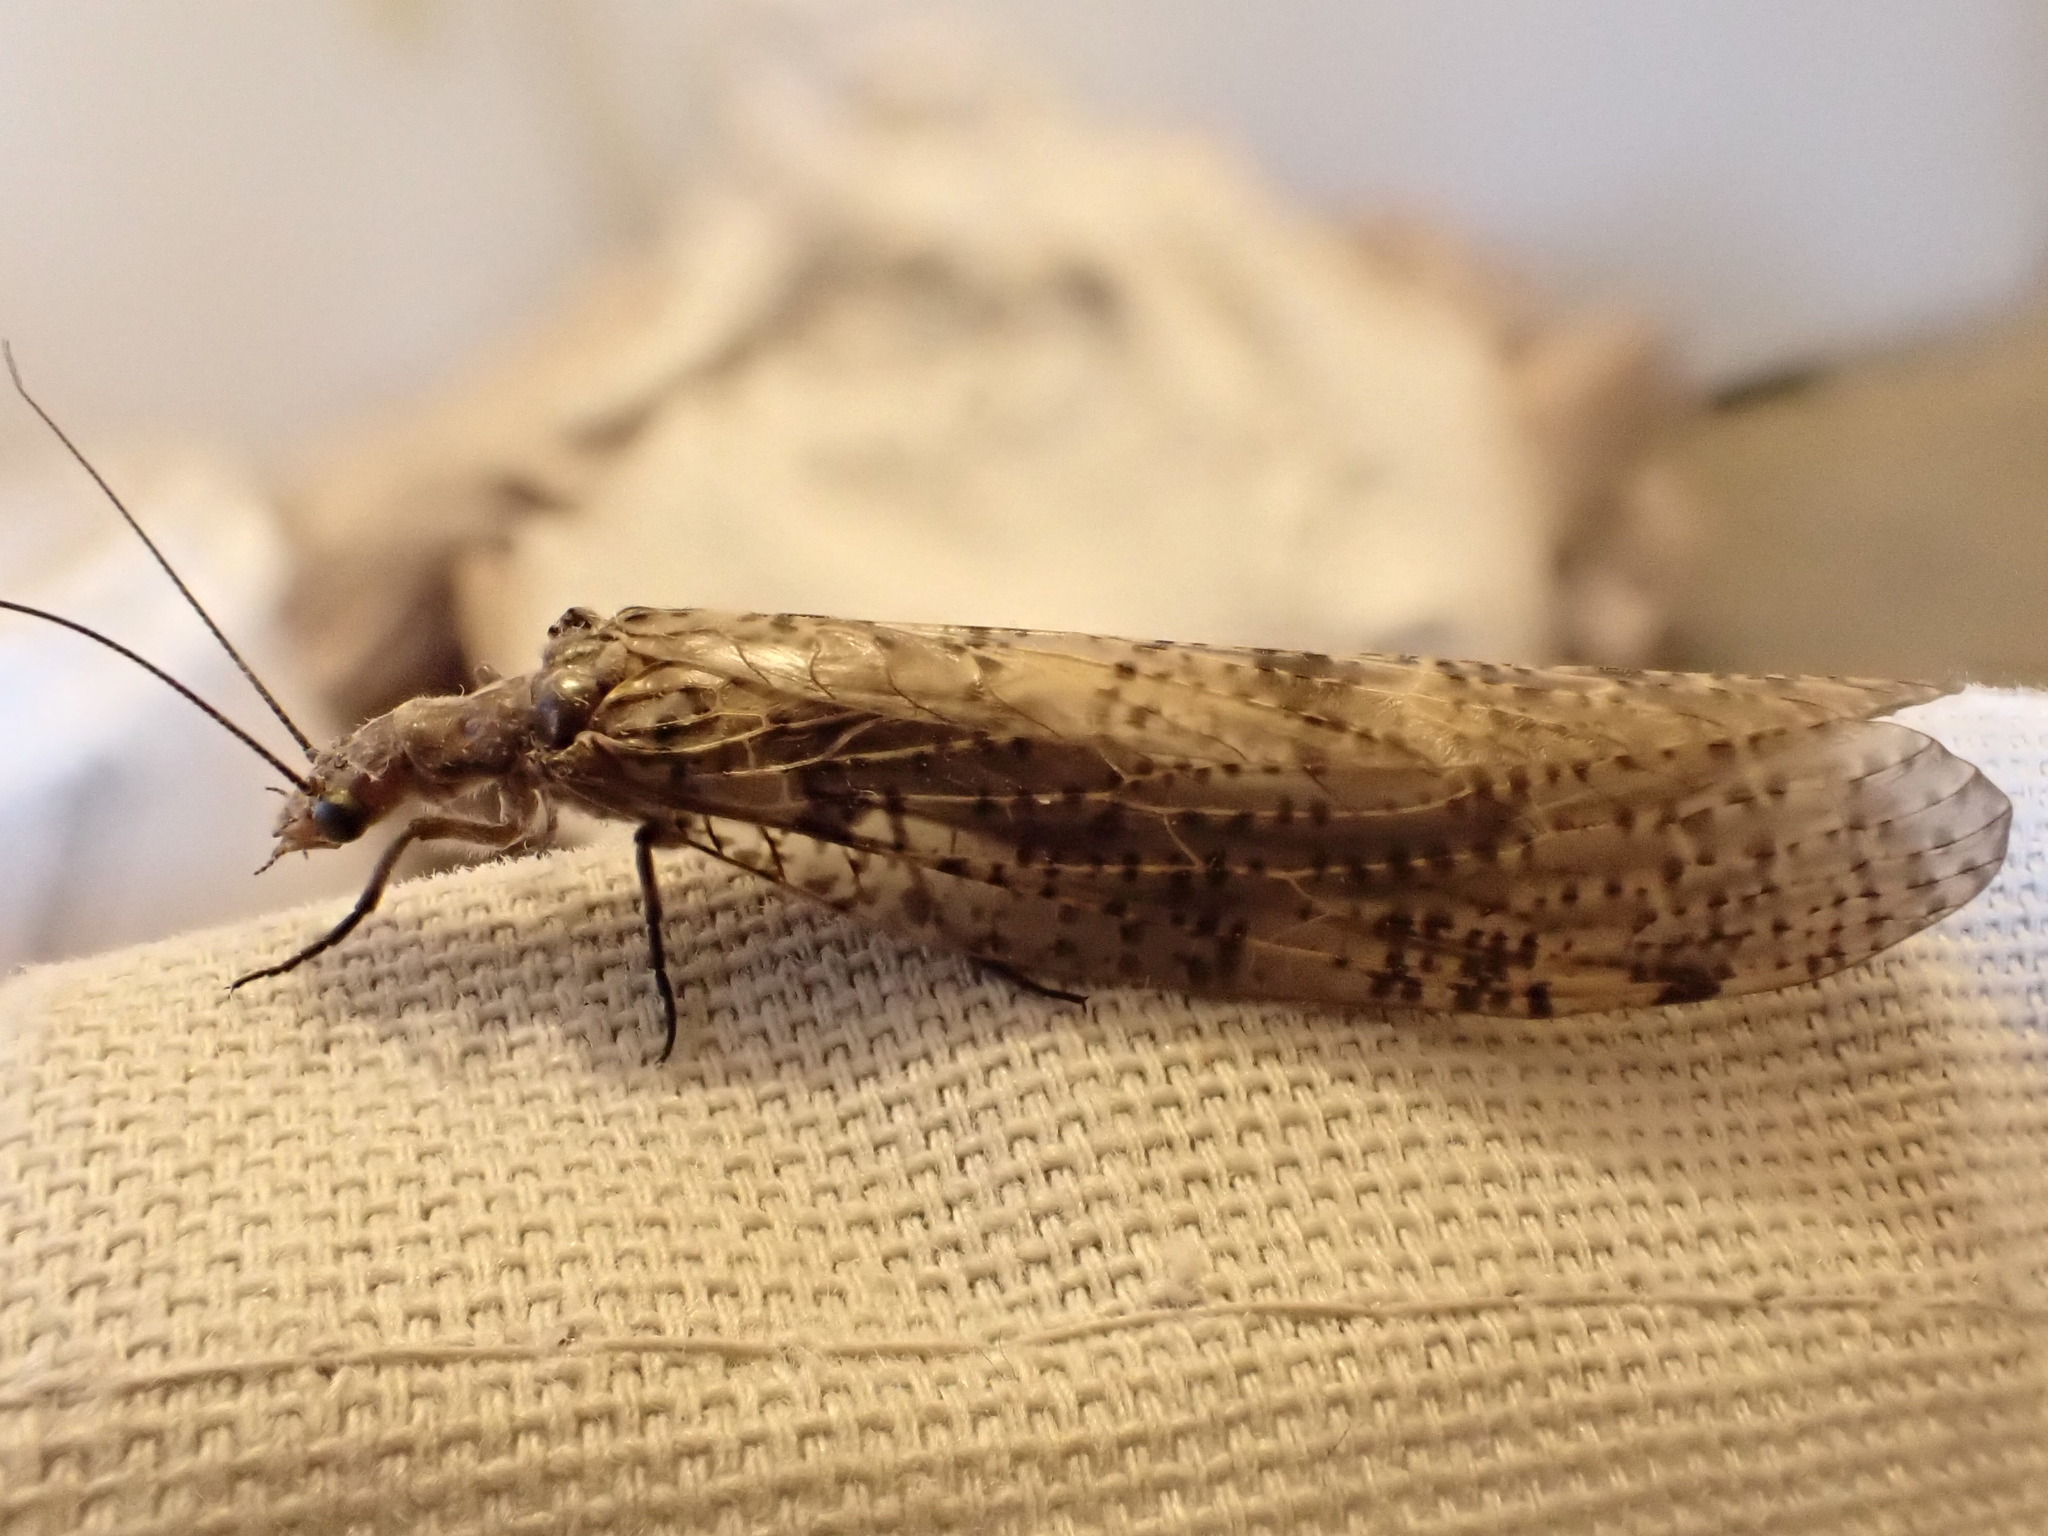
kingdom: Animalia
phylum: Arthropoda
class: Insecta
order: Megaloptera
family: Corydalidae
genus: Archichauliodes
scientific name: Archichauliodes diversus
